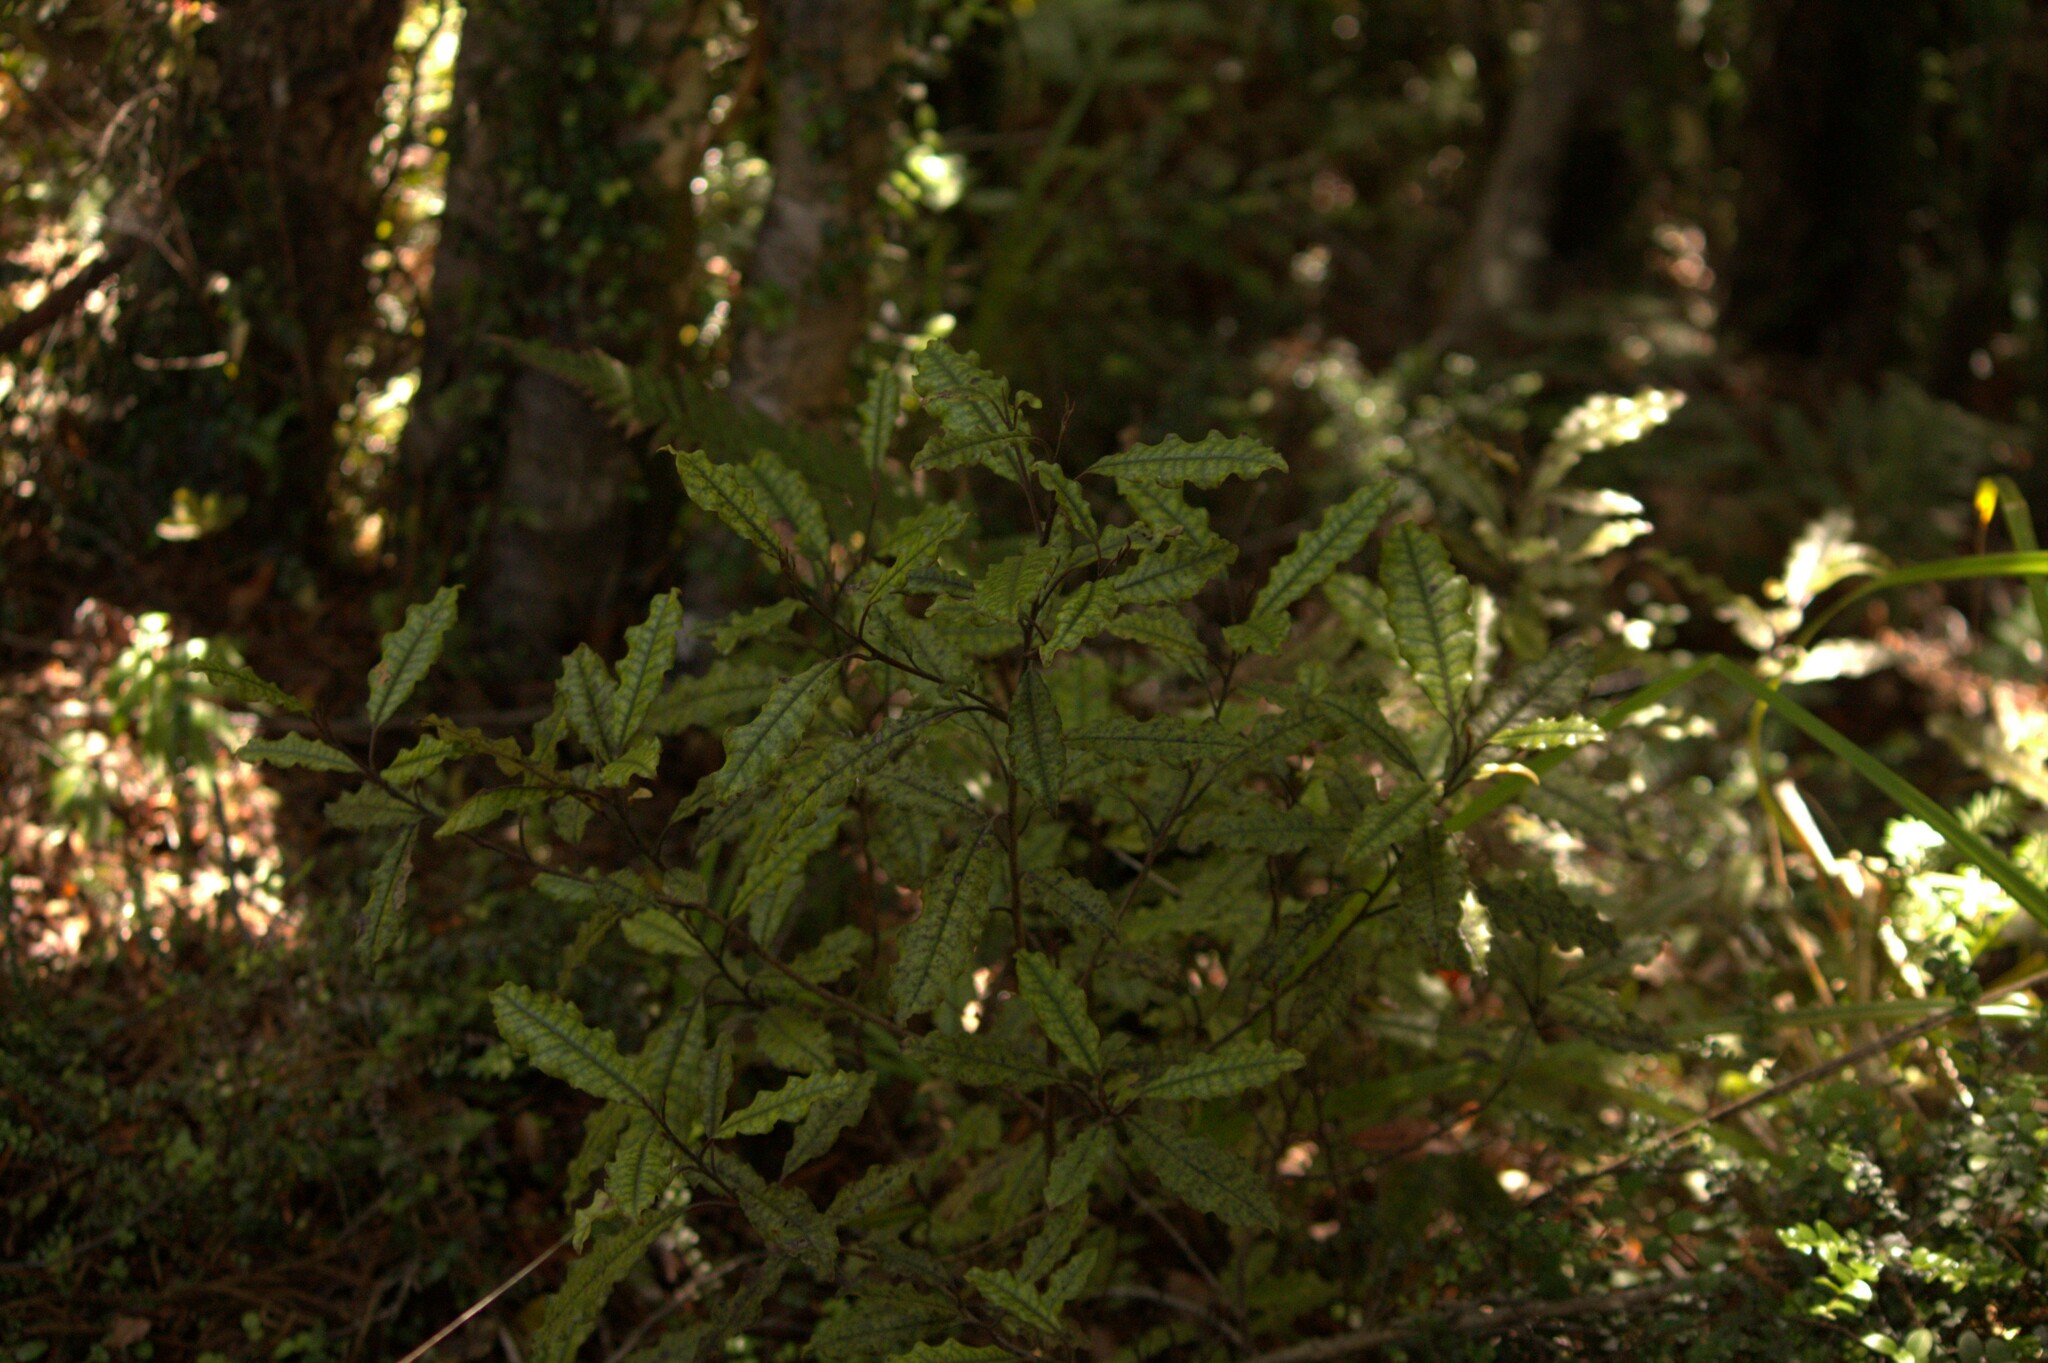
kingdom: Plantae
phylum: Tracheophyta
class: Magnoliopsida
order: Paracryphiales
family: Paracryphiaceae
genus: Quintinia
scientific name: Quintinia serrata
